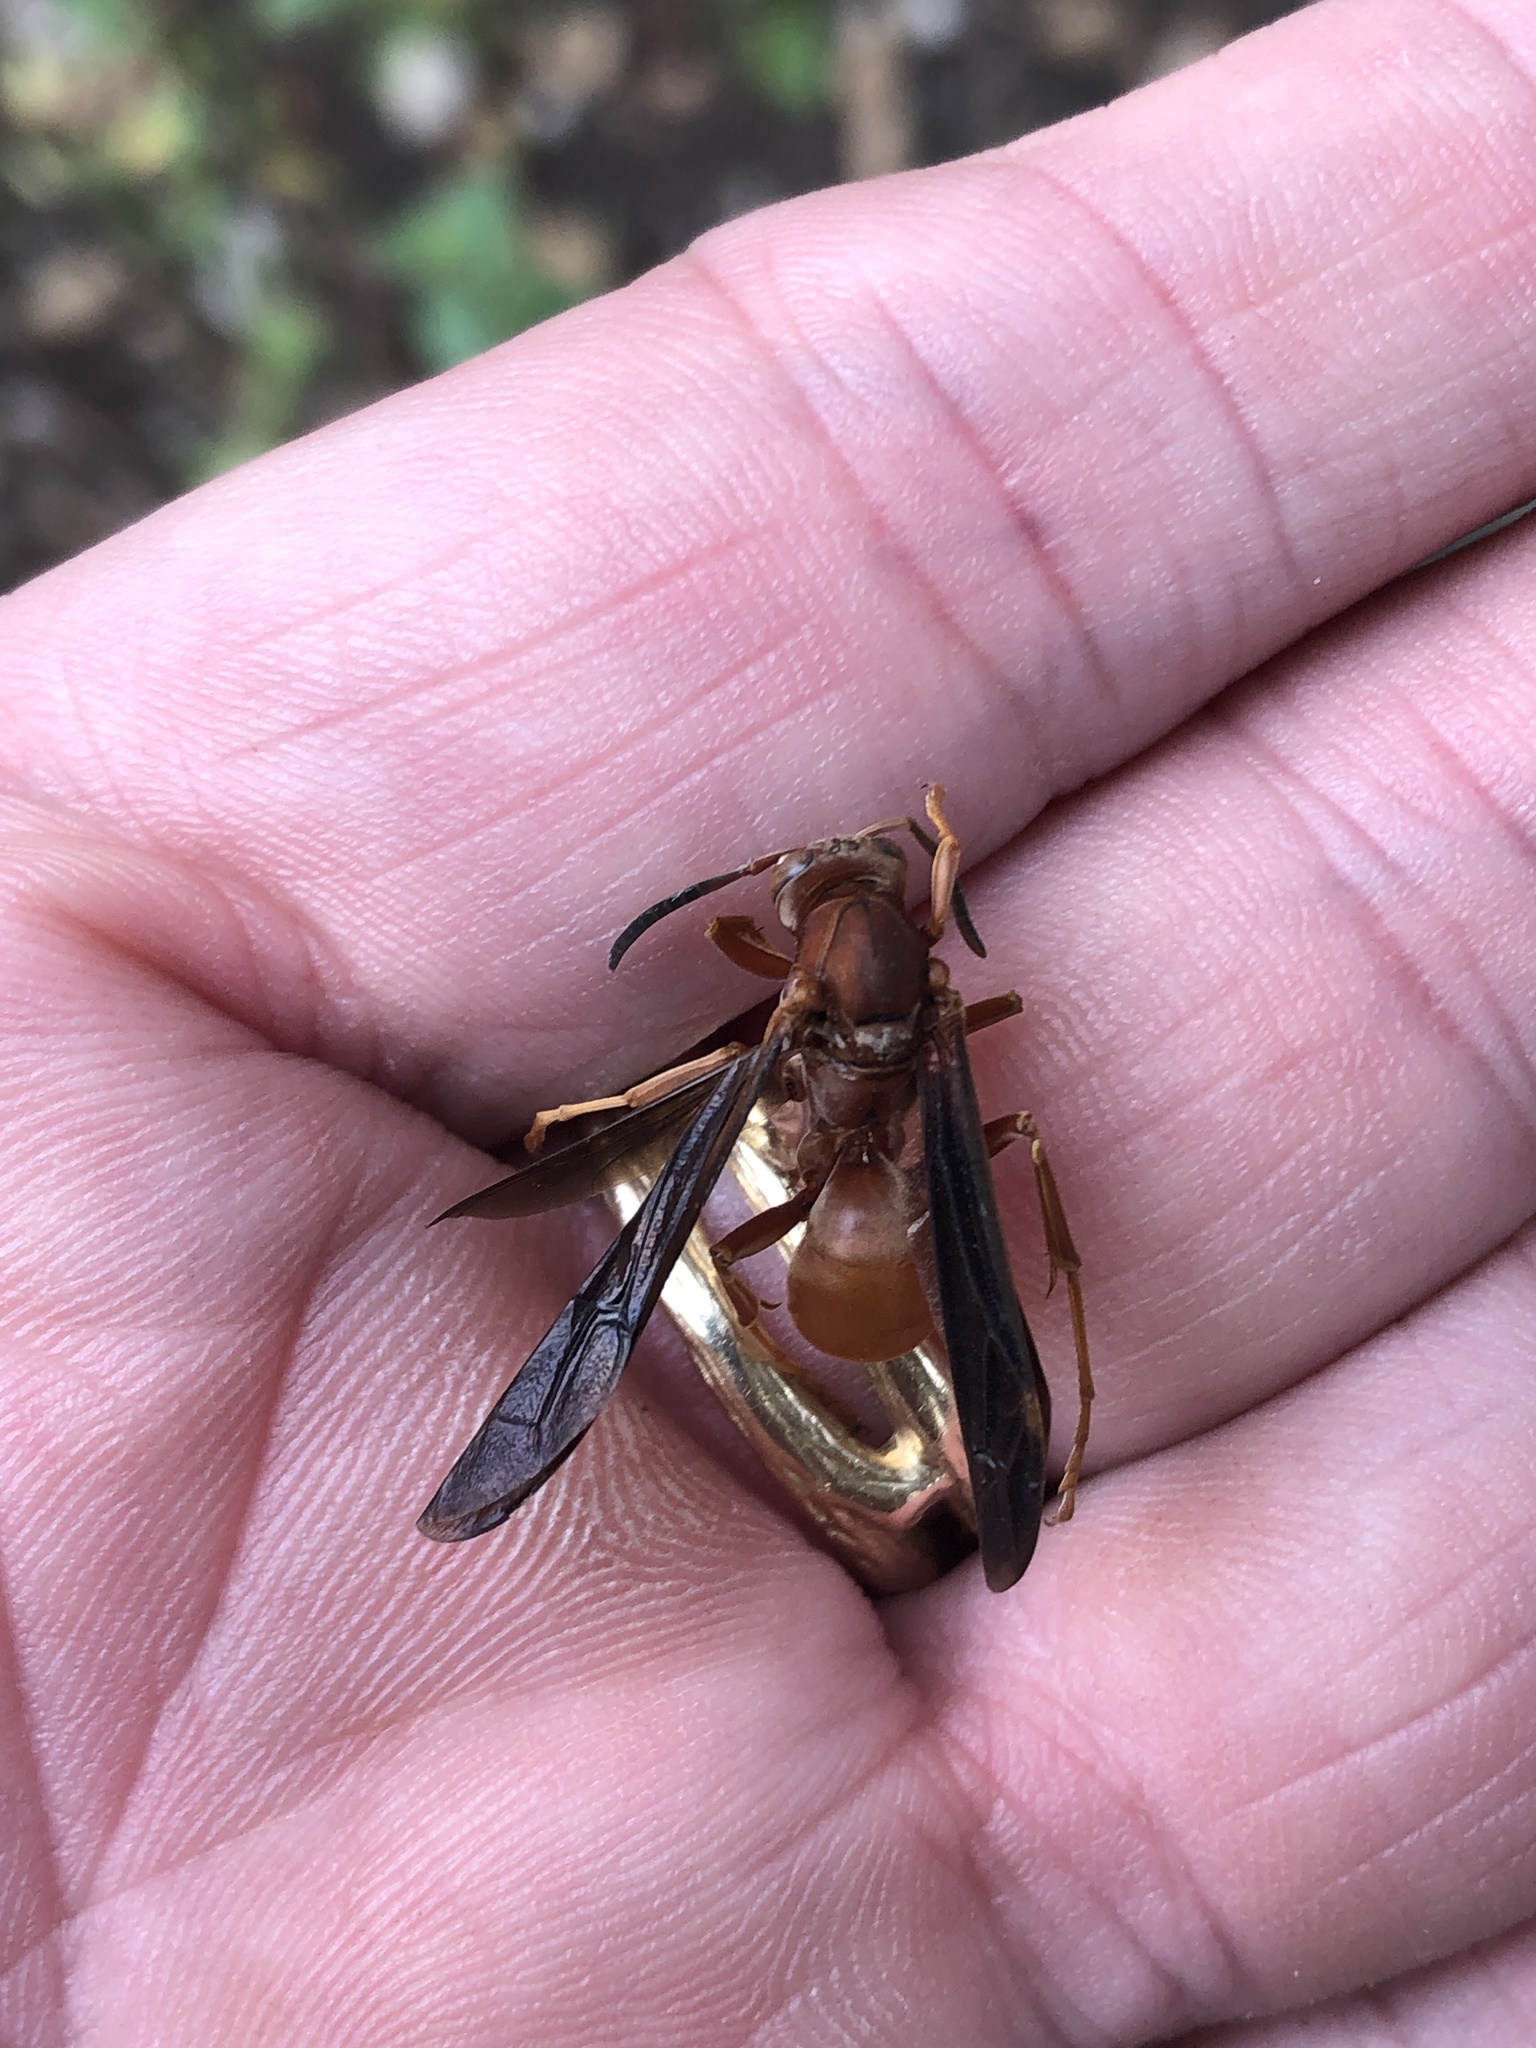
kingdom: Animalia
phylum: Arthropoda
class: Insecta
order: Hymenoptera
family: Vespidae
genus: Fuscopolistes
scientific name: Fuscopolistes
